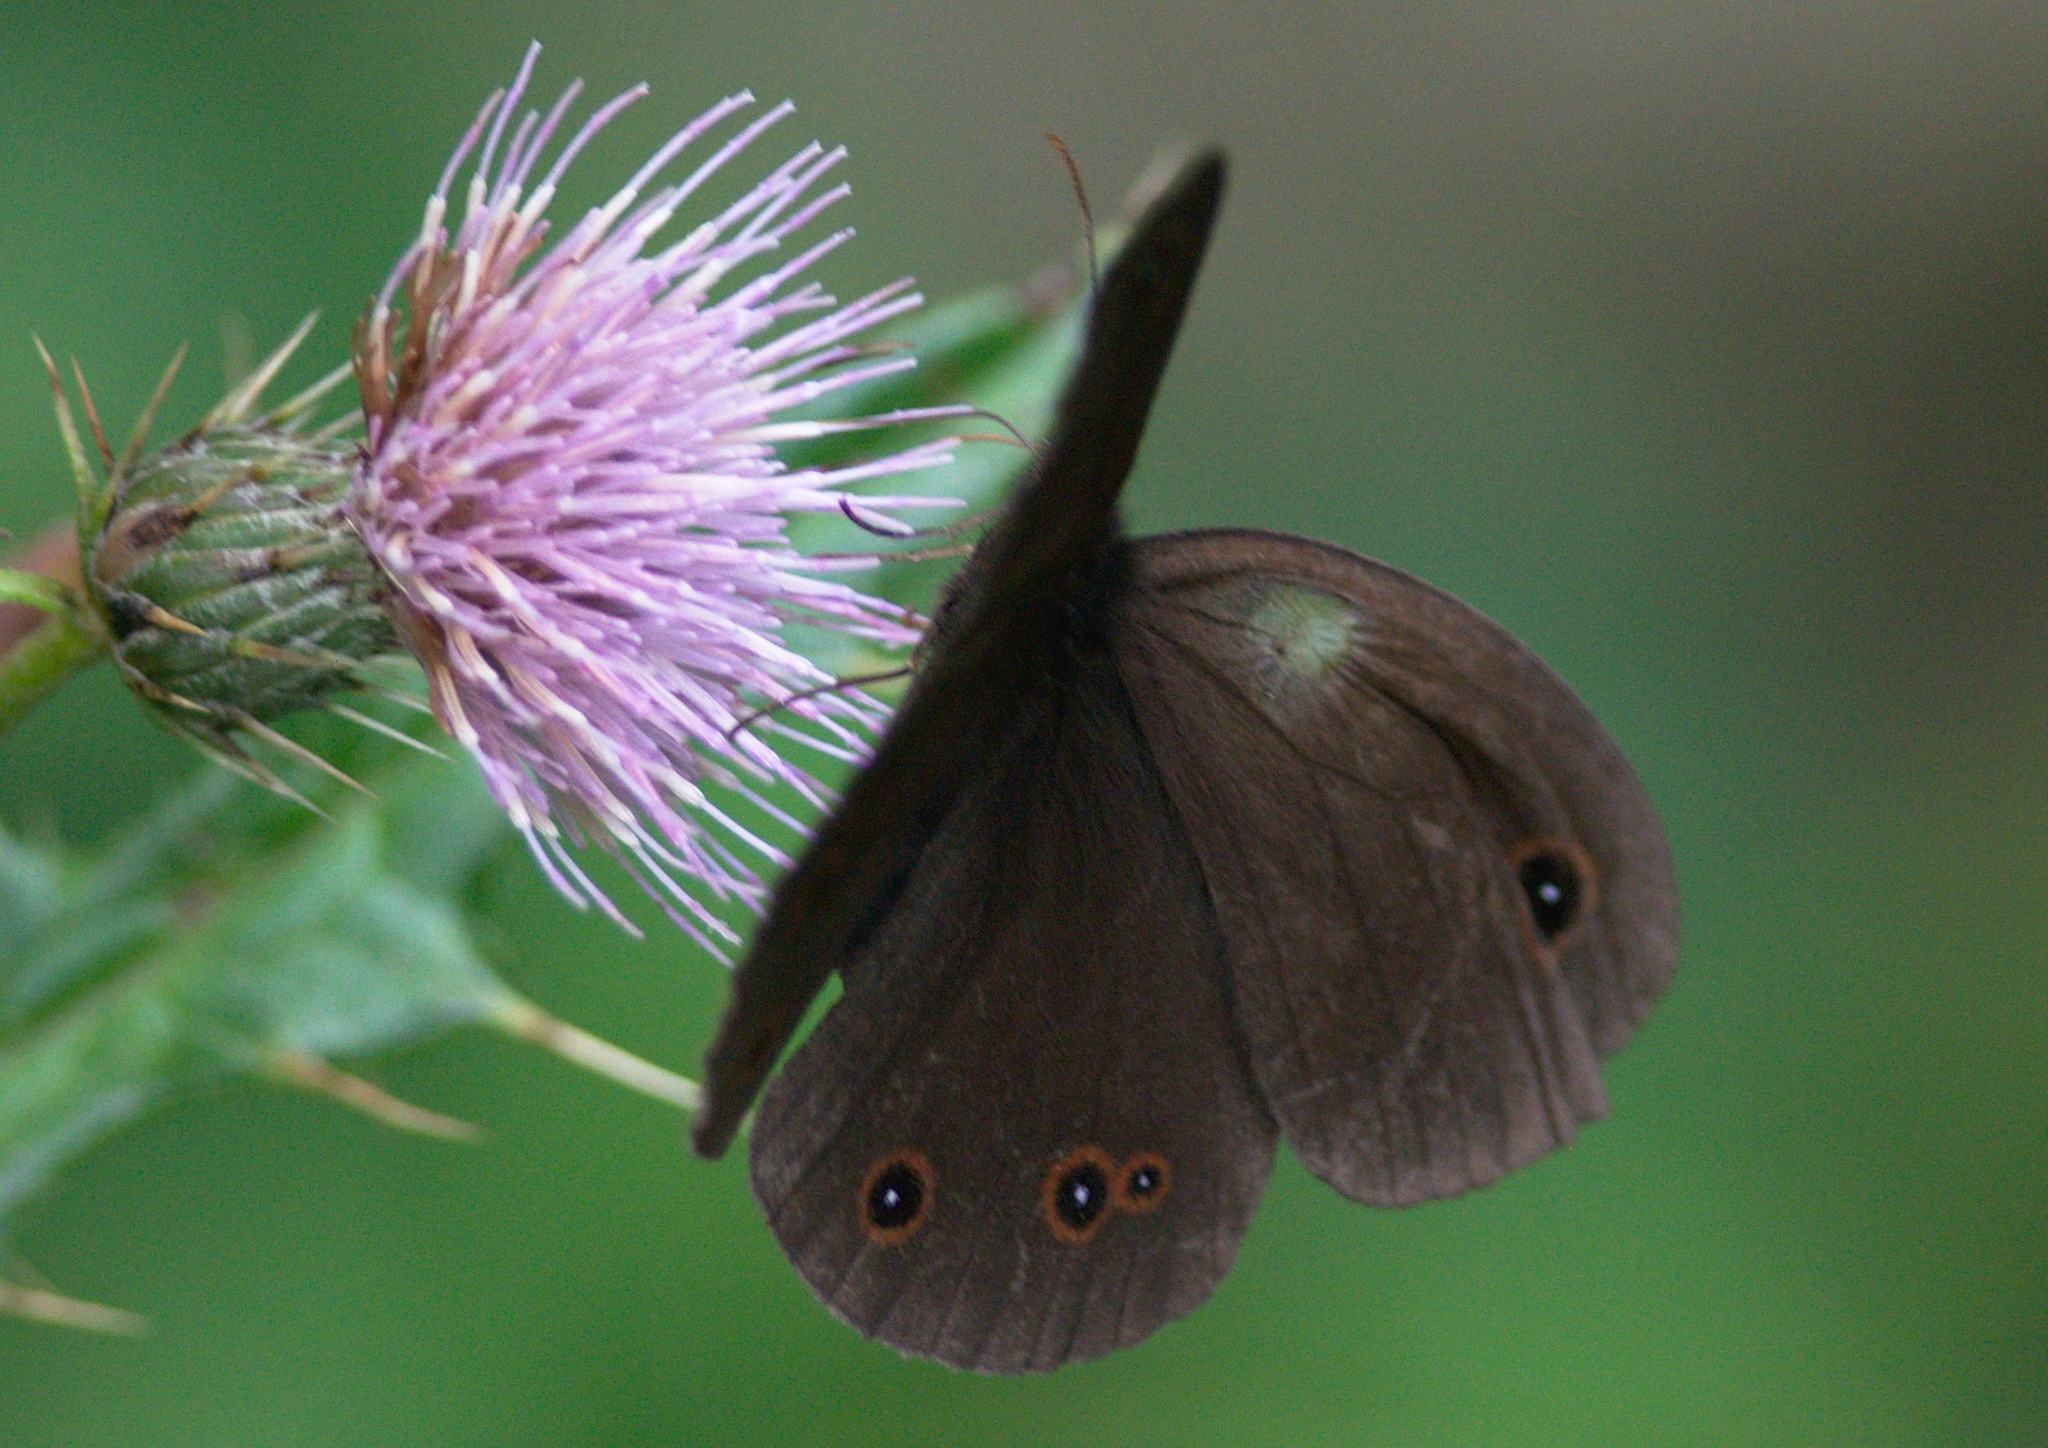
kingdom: Animalia
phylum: Arthropoda
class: Insecta
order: Lepidoptera
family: Nymphalidae
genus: Callerebia
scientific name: Callerebia nirmala
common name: Common argus
